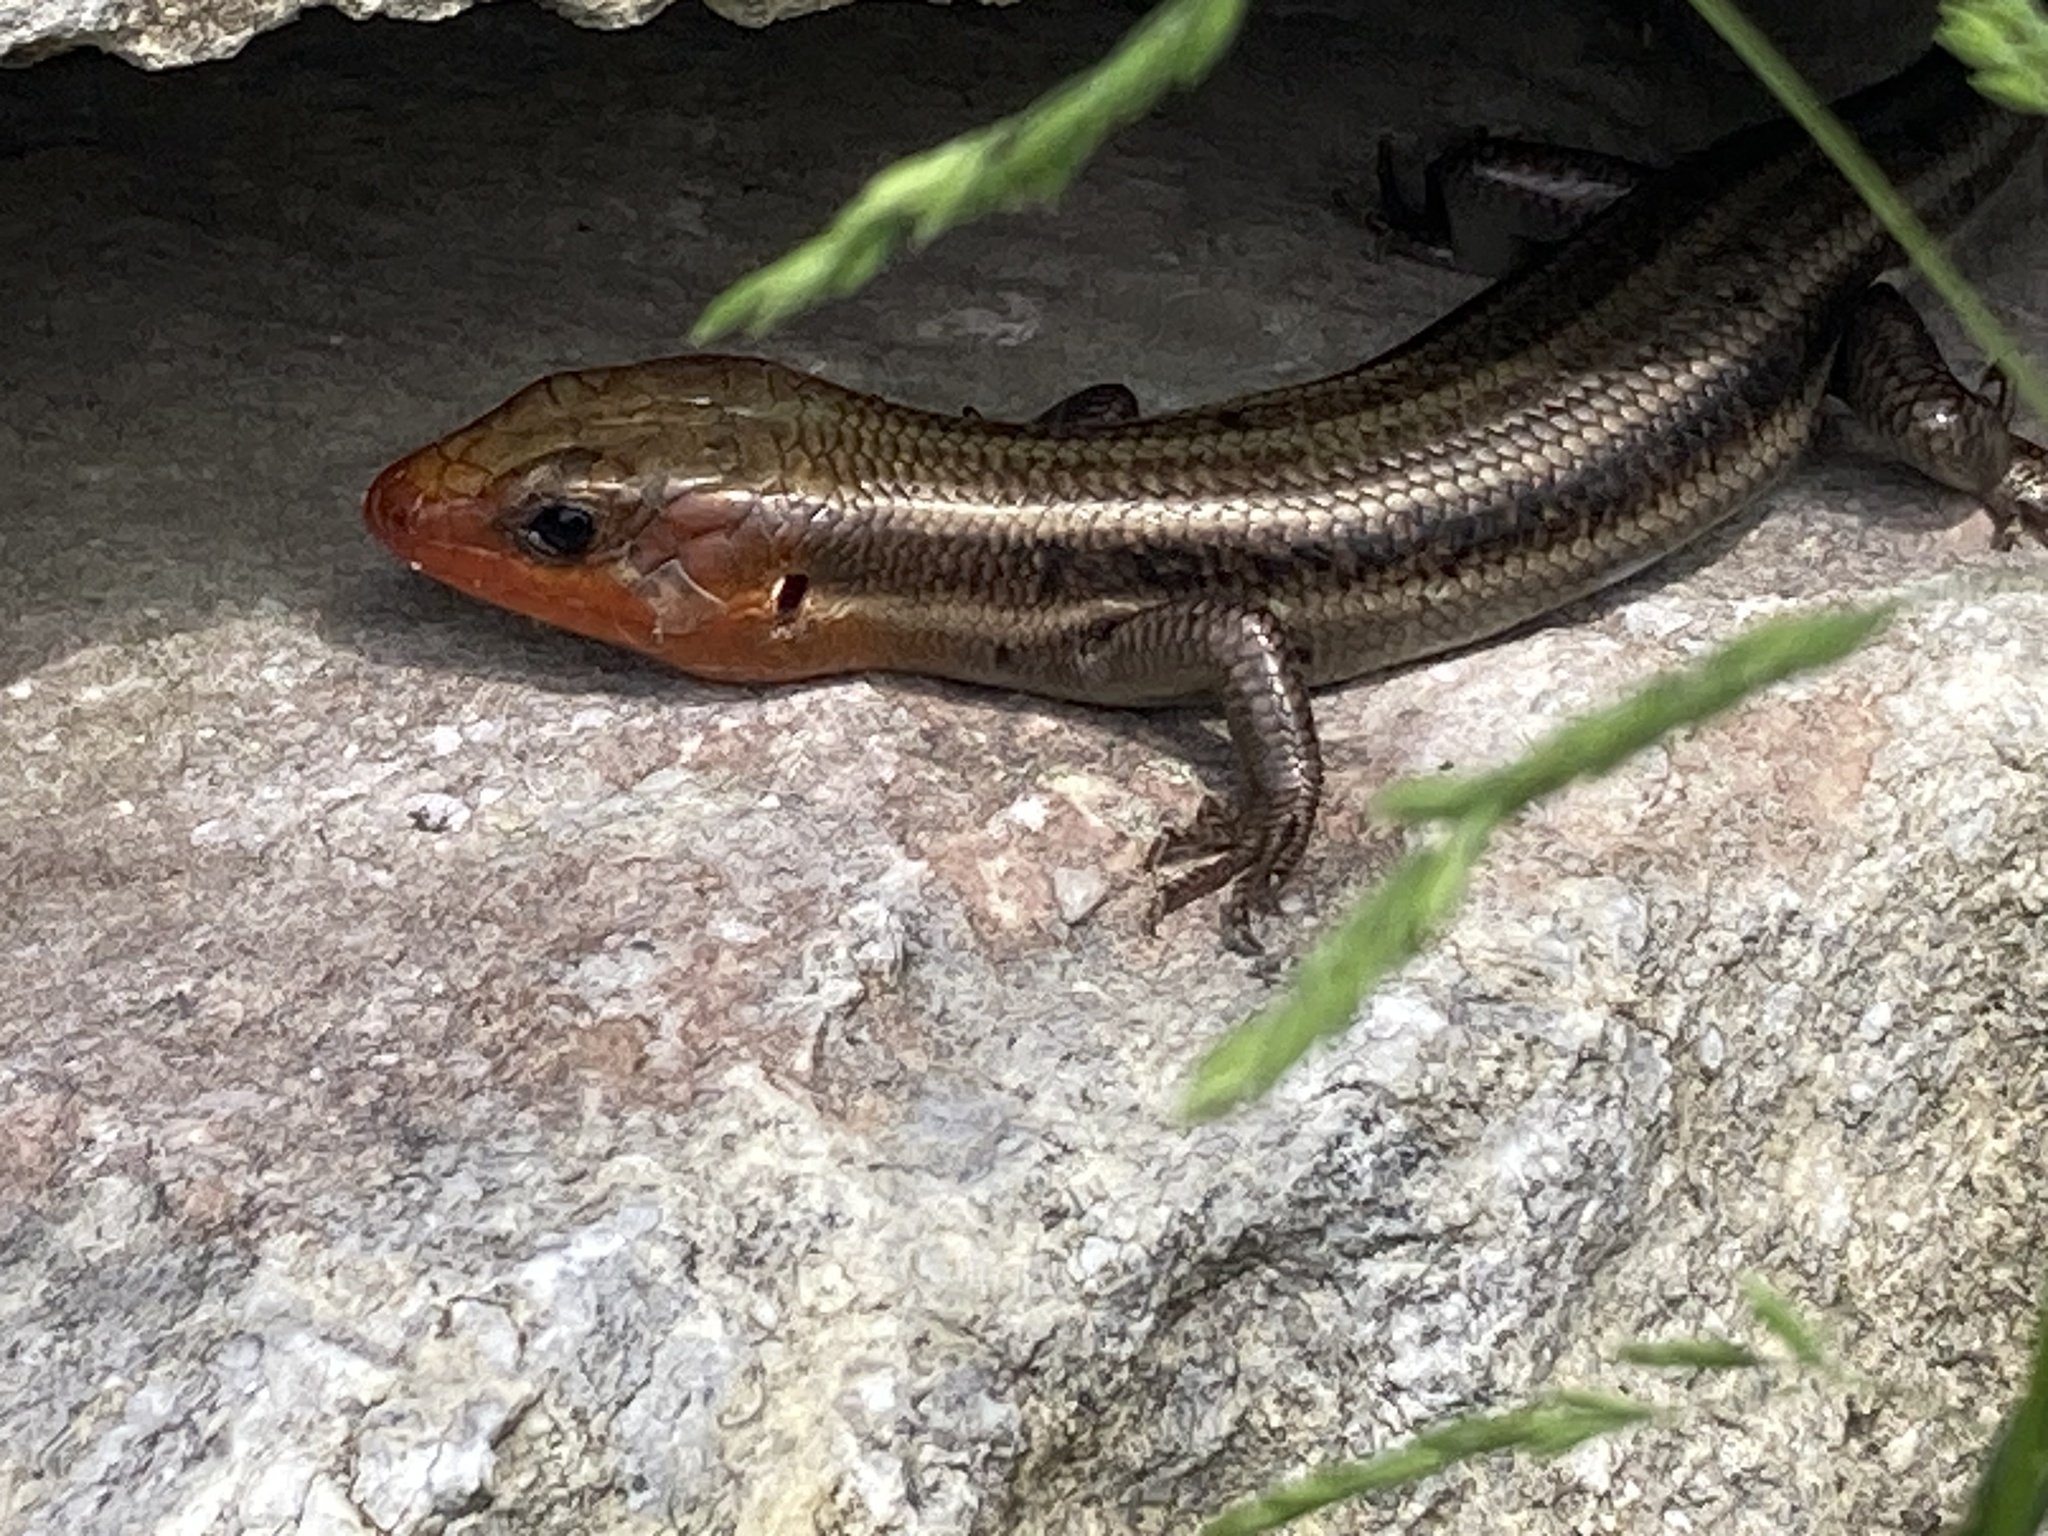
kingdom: Animalia
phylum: Chordata
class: Squamata
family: Scincidae
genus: Plestiodon
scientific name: Plestiodon fasciatus
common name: Five-lined skink
